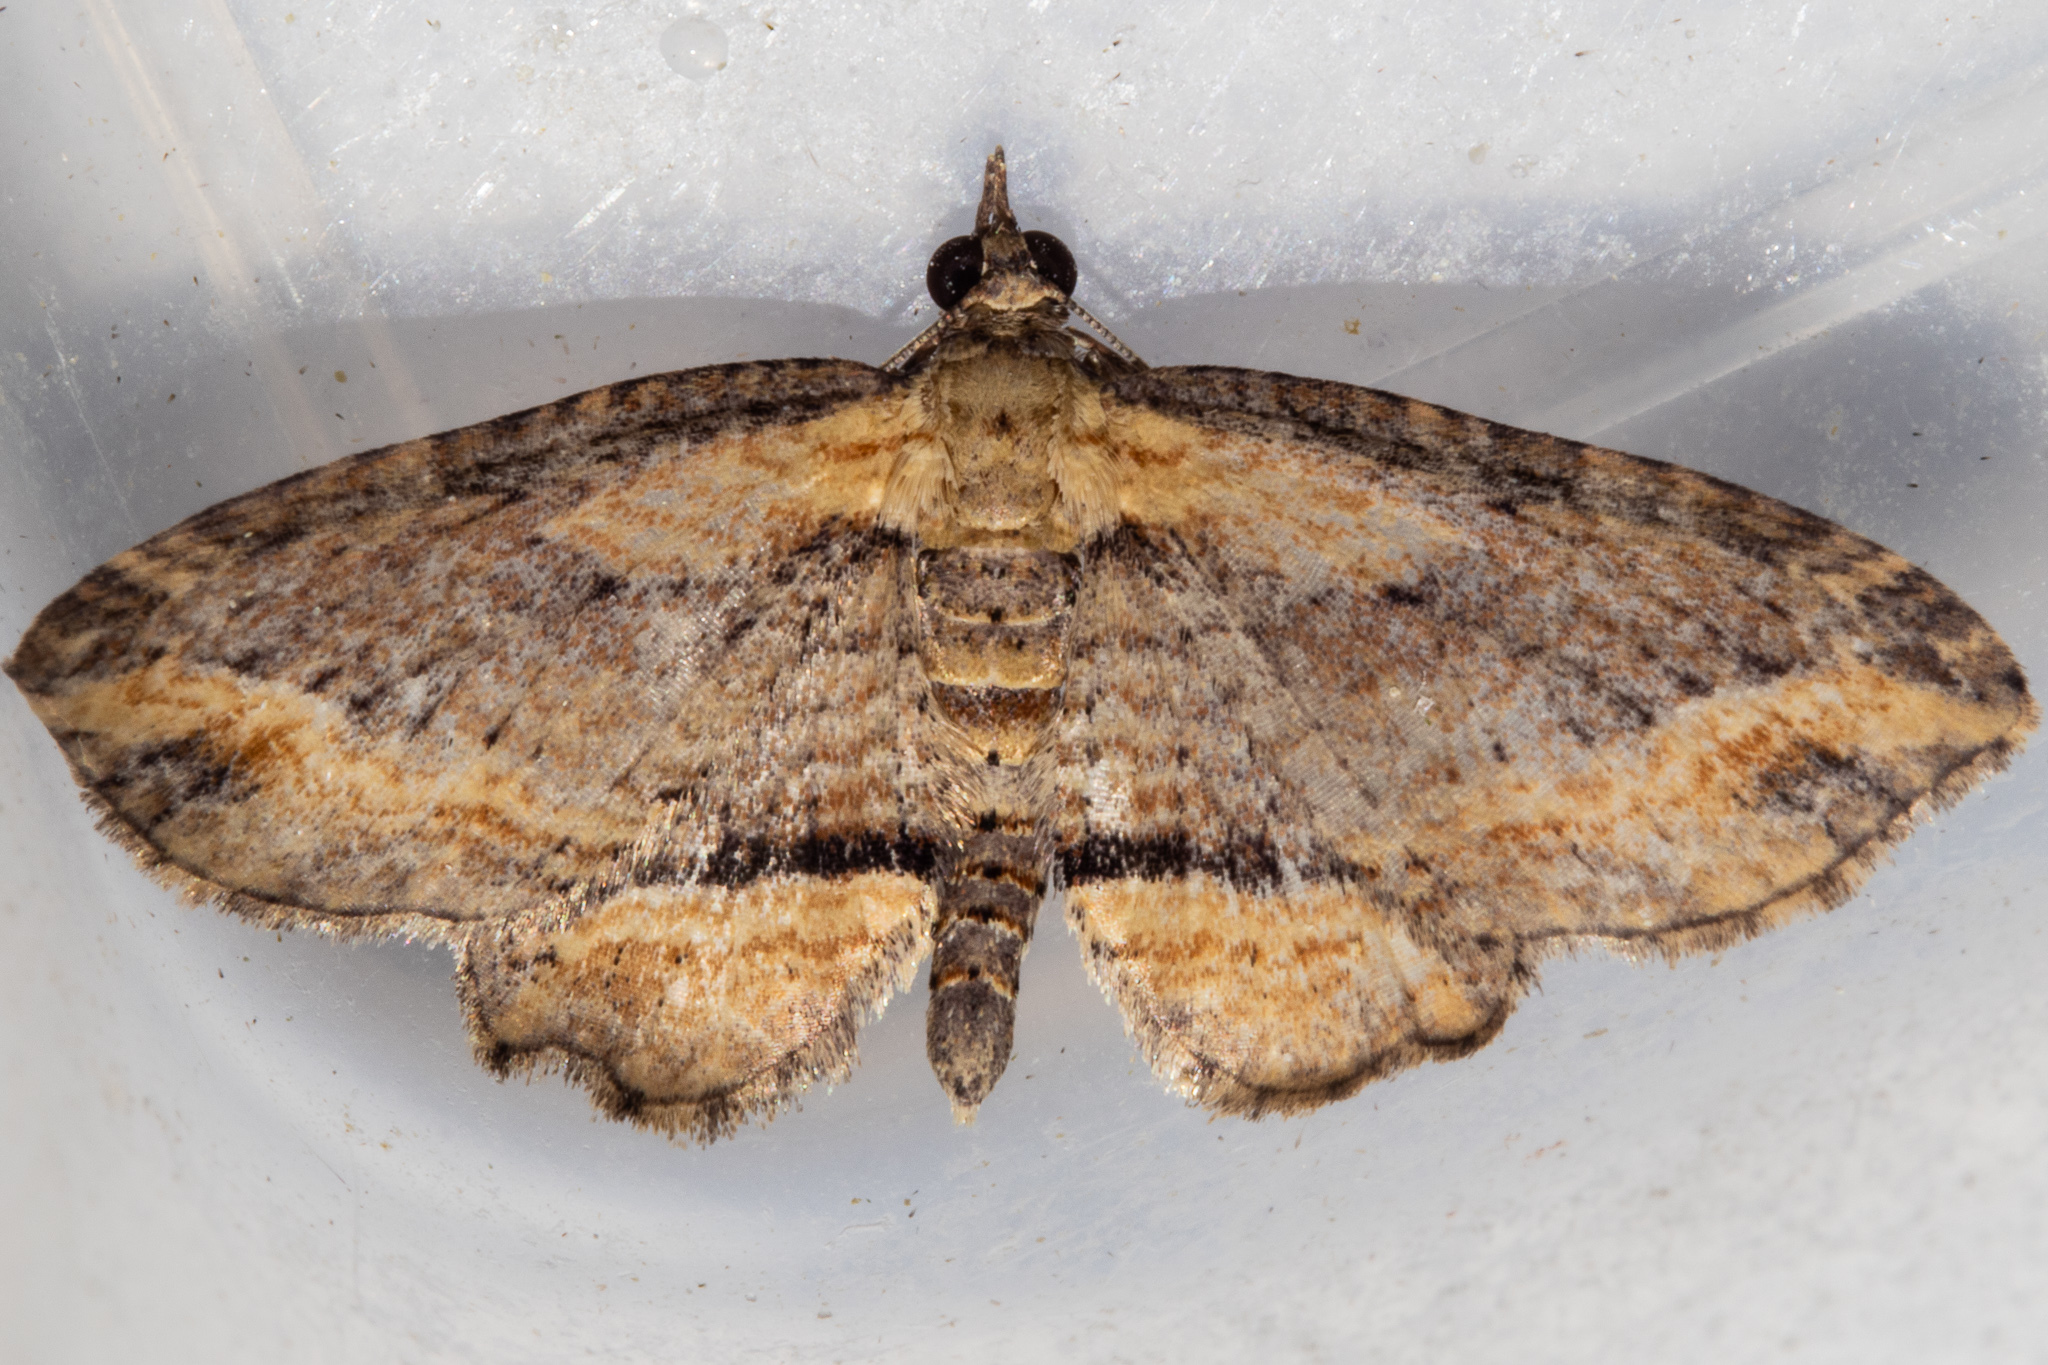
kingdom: Animalia
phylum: Arthropoda
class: Insecta
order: Lepidoptera
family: Geometridae
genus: Chloroclystis
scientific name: Chloroclystis filata
